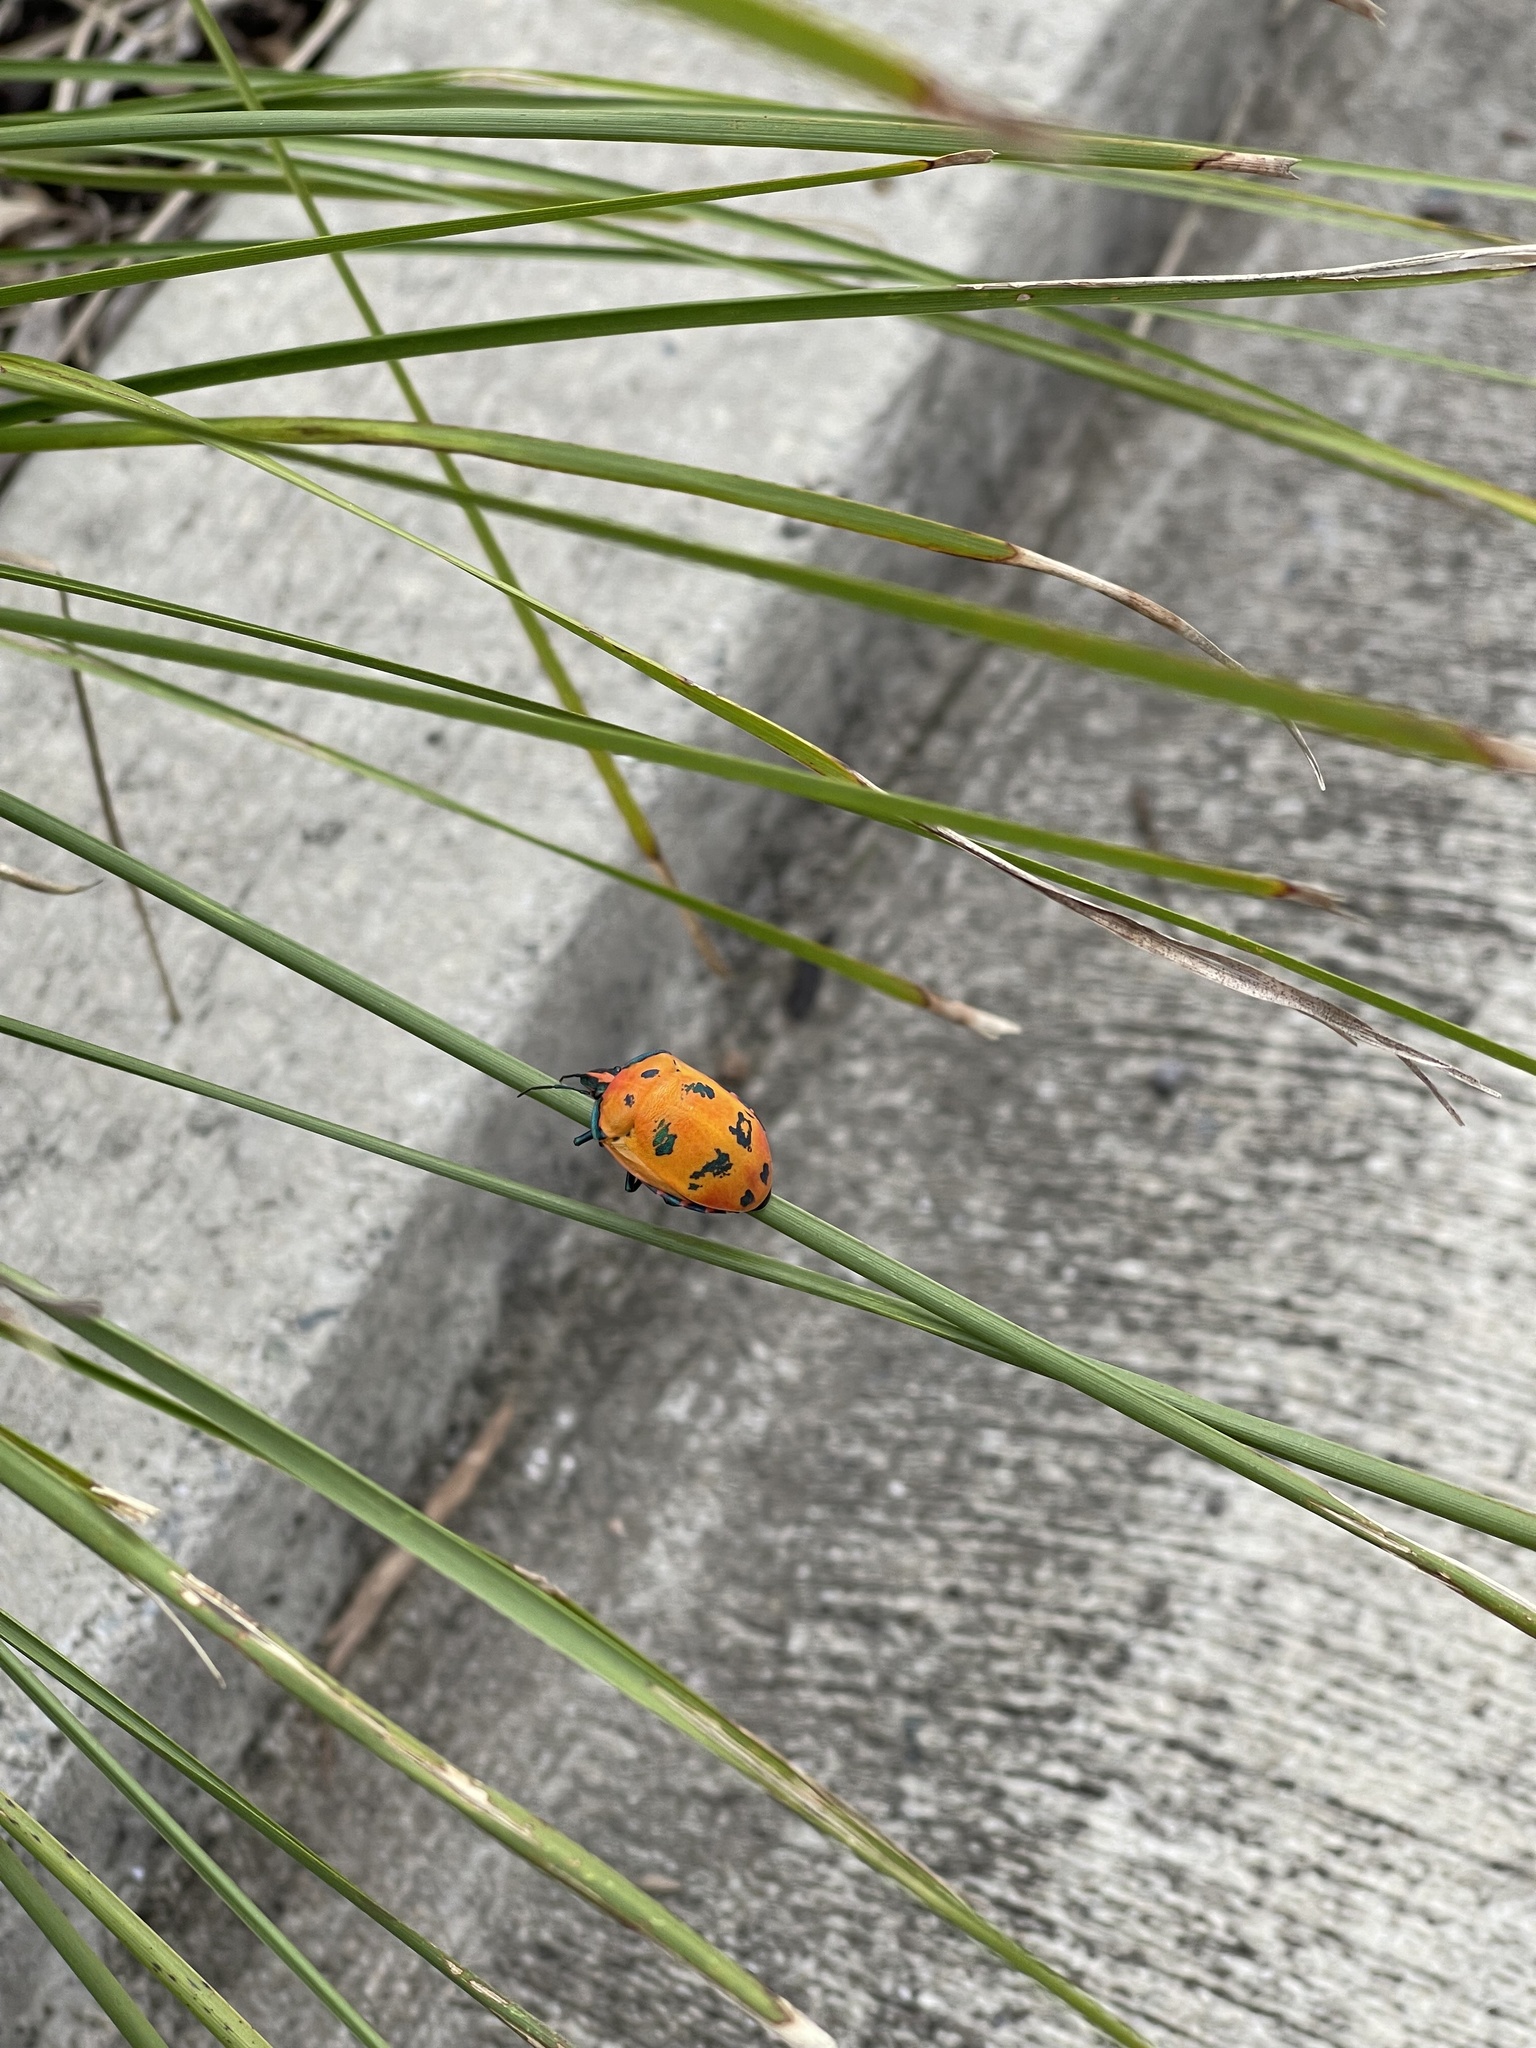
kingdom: Animalia
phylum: Arthropoda
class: Insecta
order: Hemiptera
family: Scutelleridae
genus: Tectocoris
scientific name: Tectocoris diophthalmus
